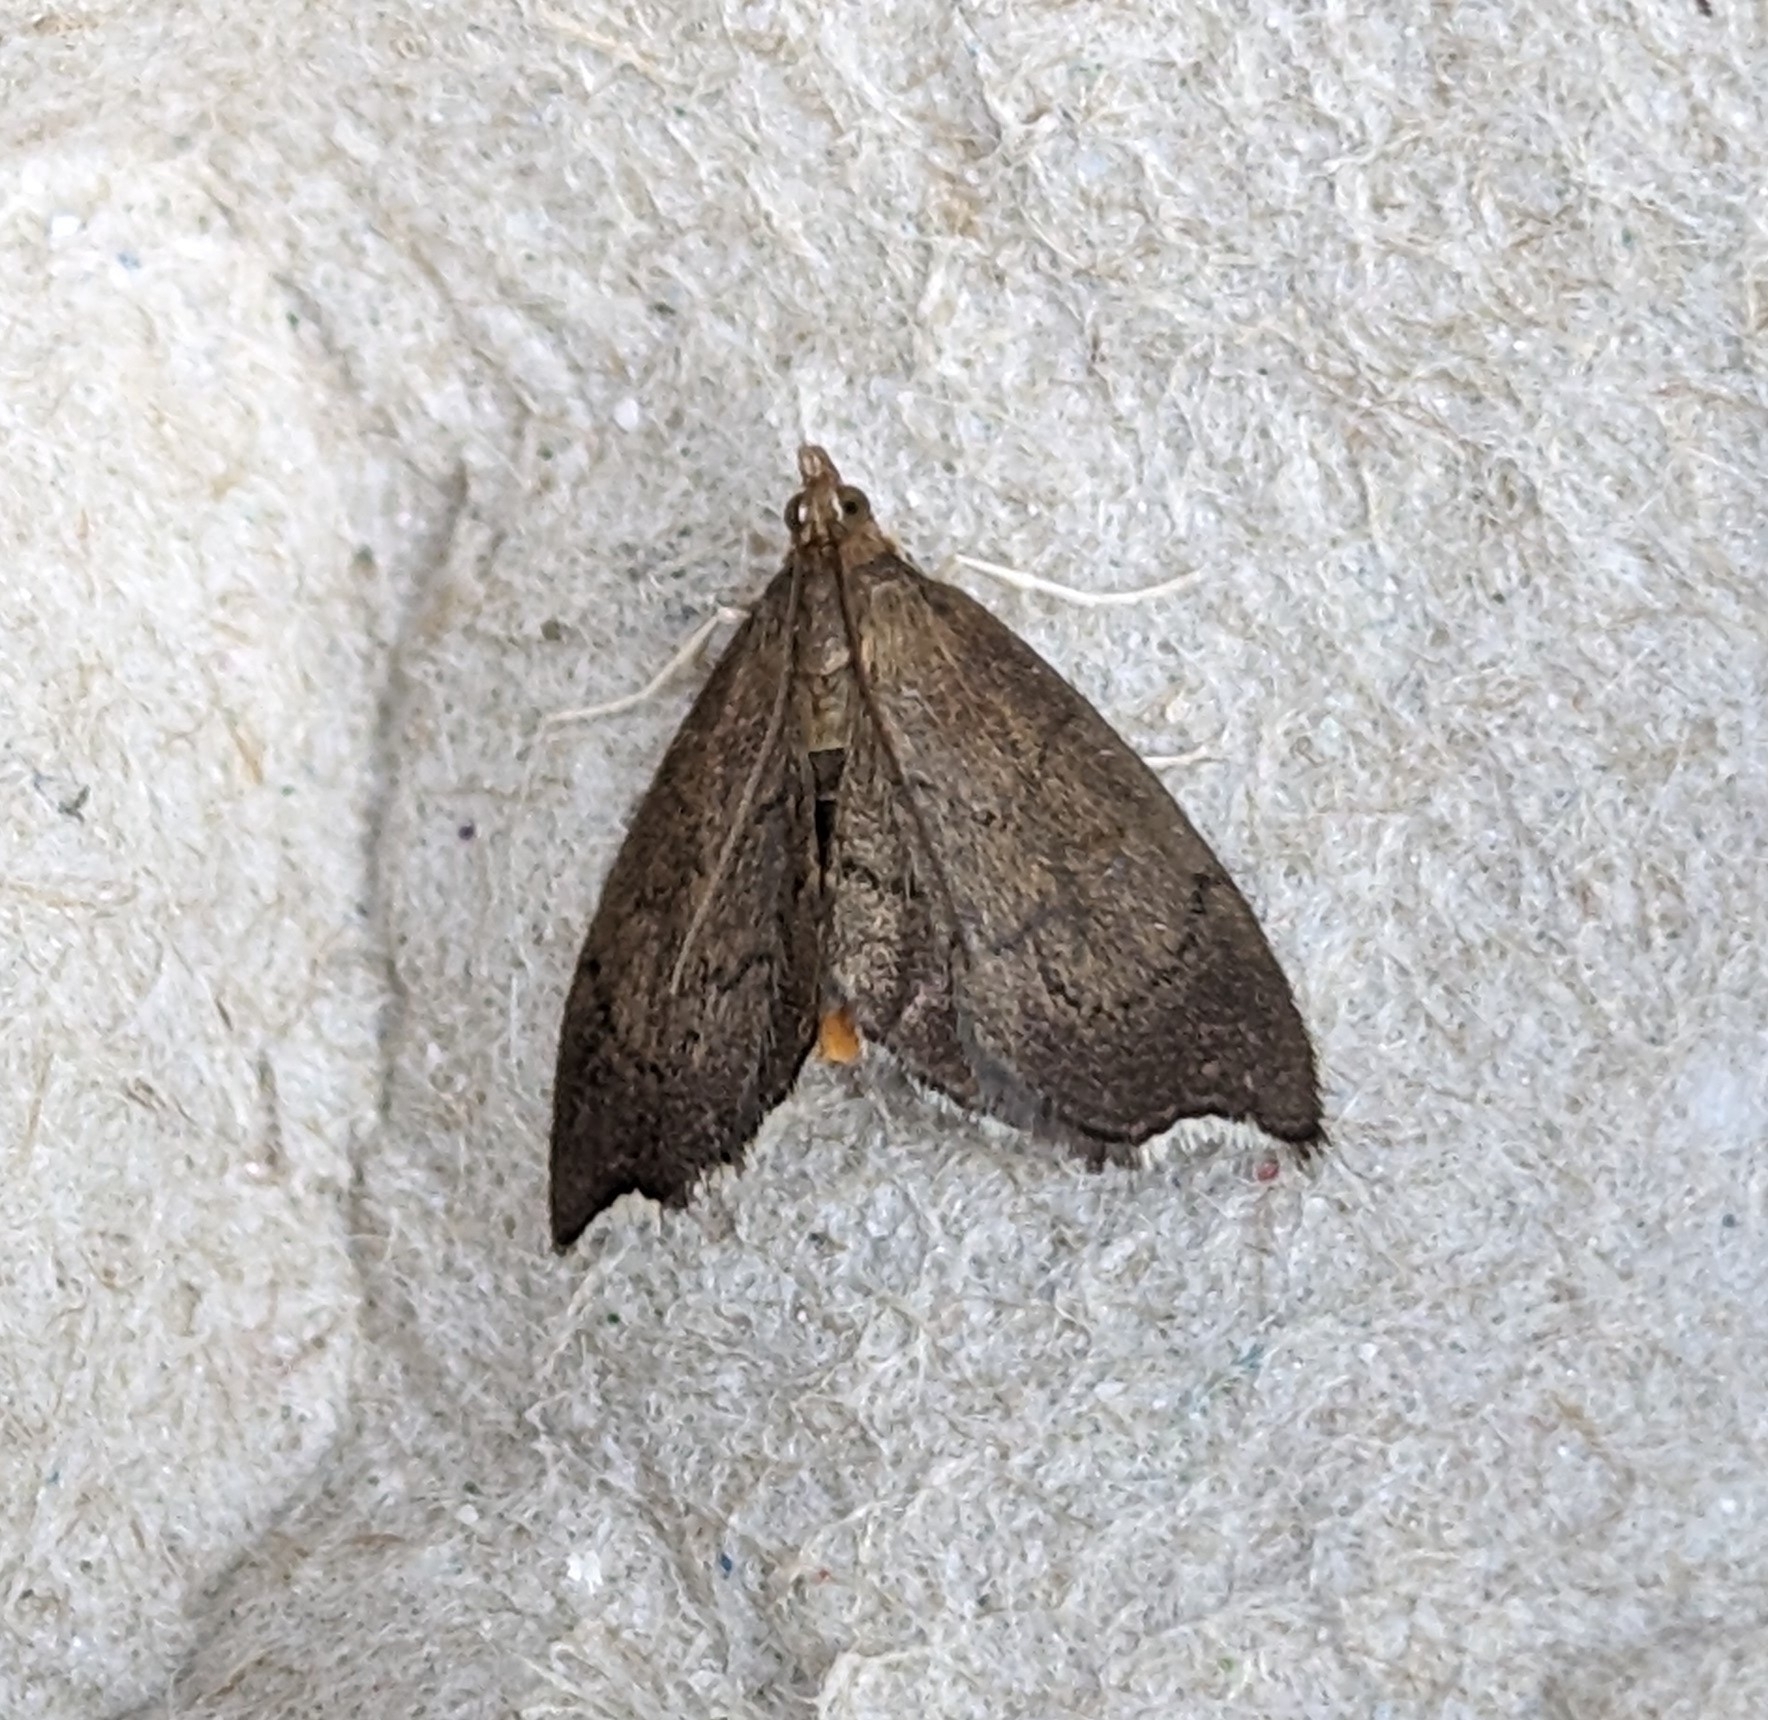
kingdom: Animalia
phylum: Arthropoda
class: Insecta
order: Lepidoptera
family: Crambidae
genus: Perispasta
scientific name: Perispasta caeculalis
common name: Titian peale's moth
